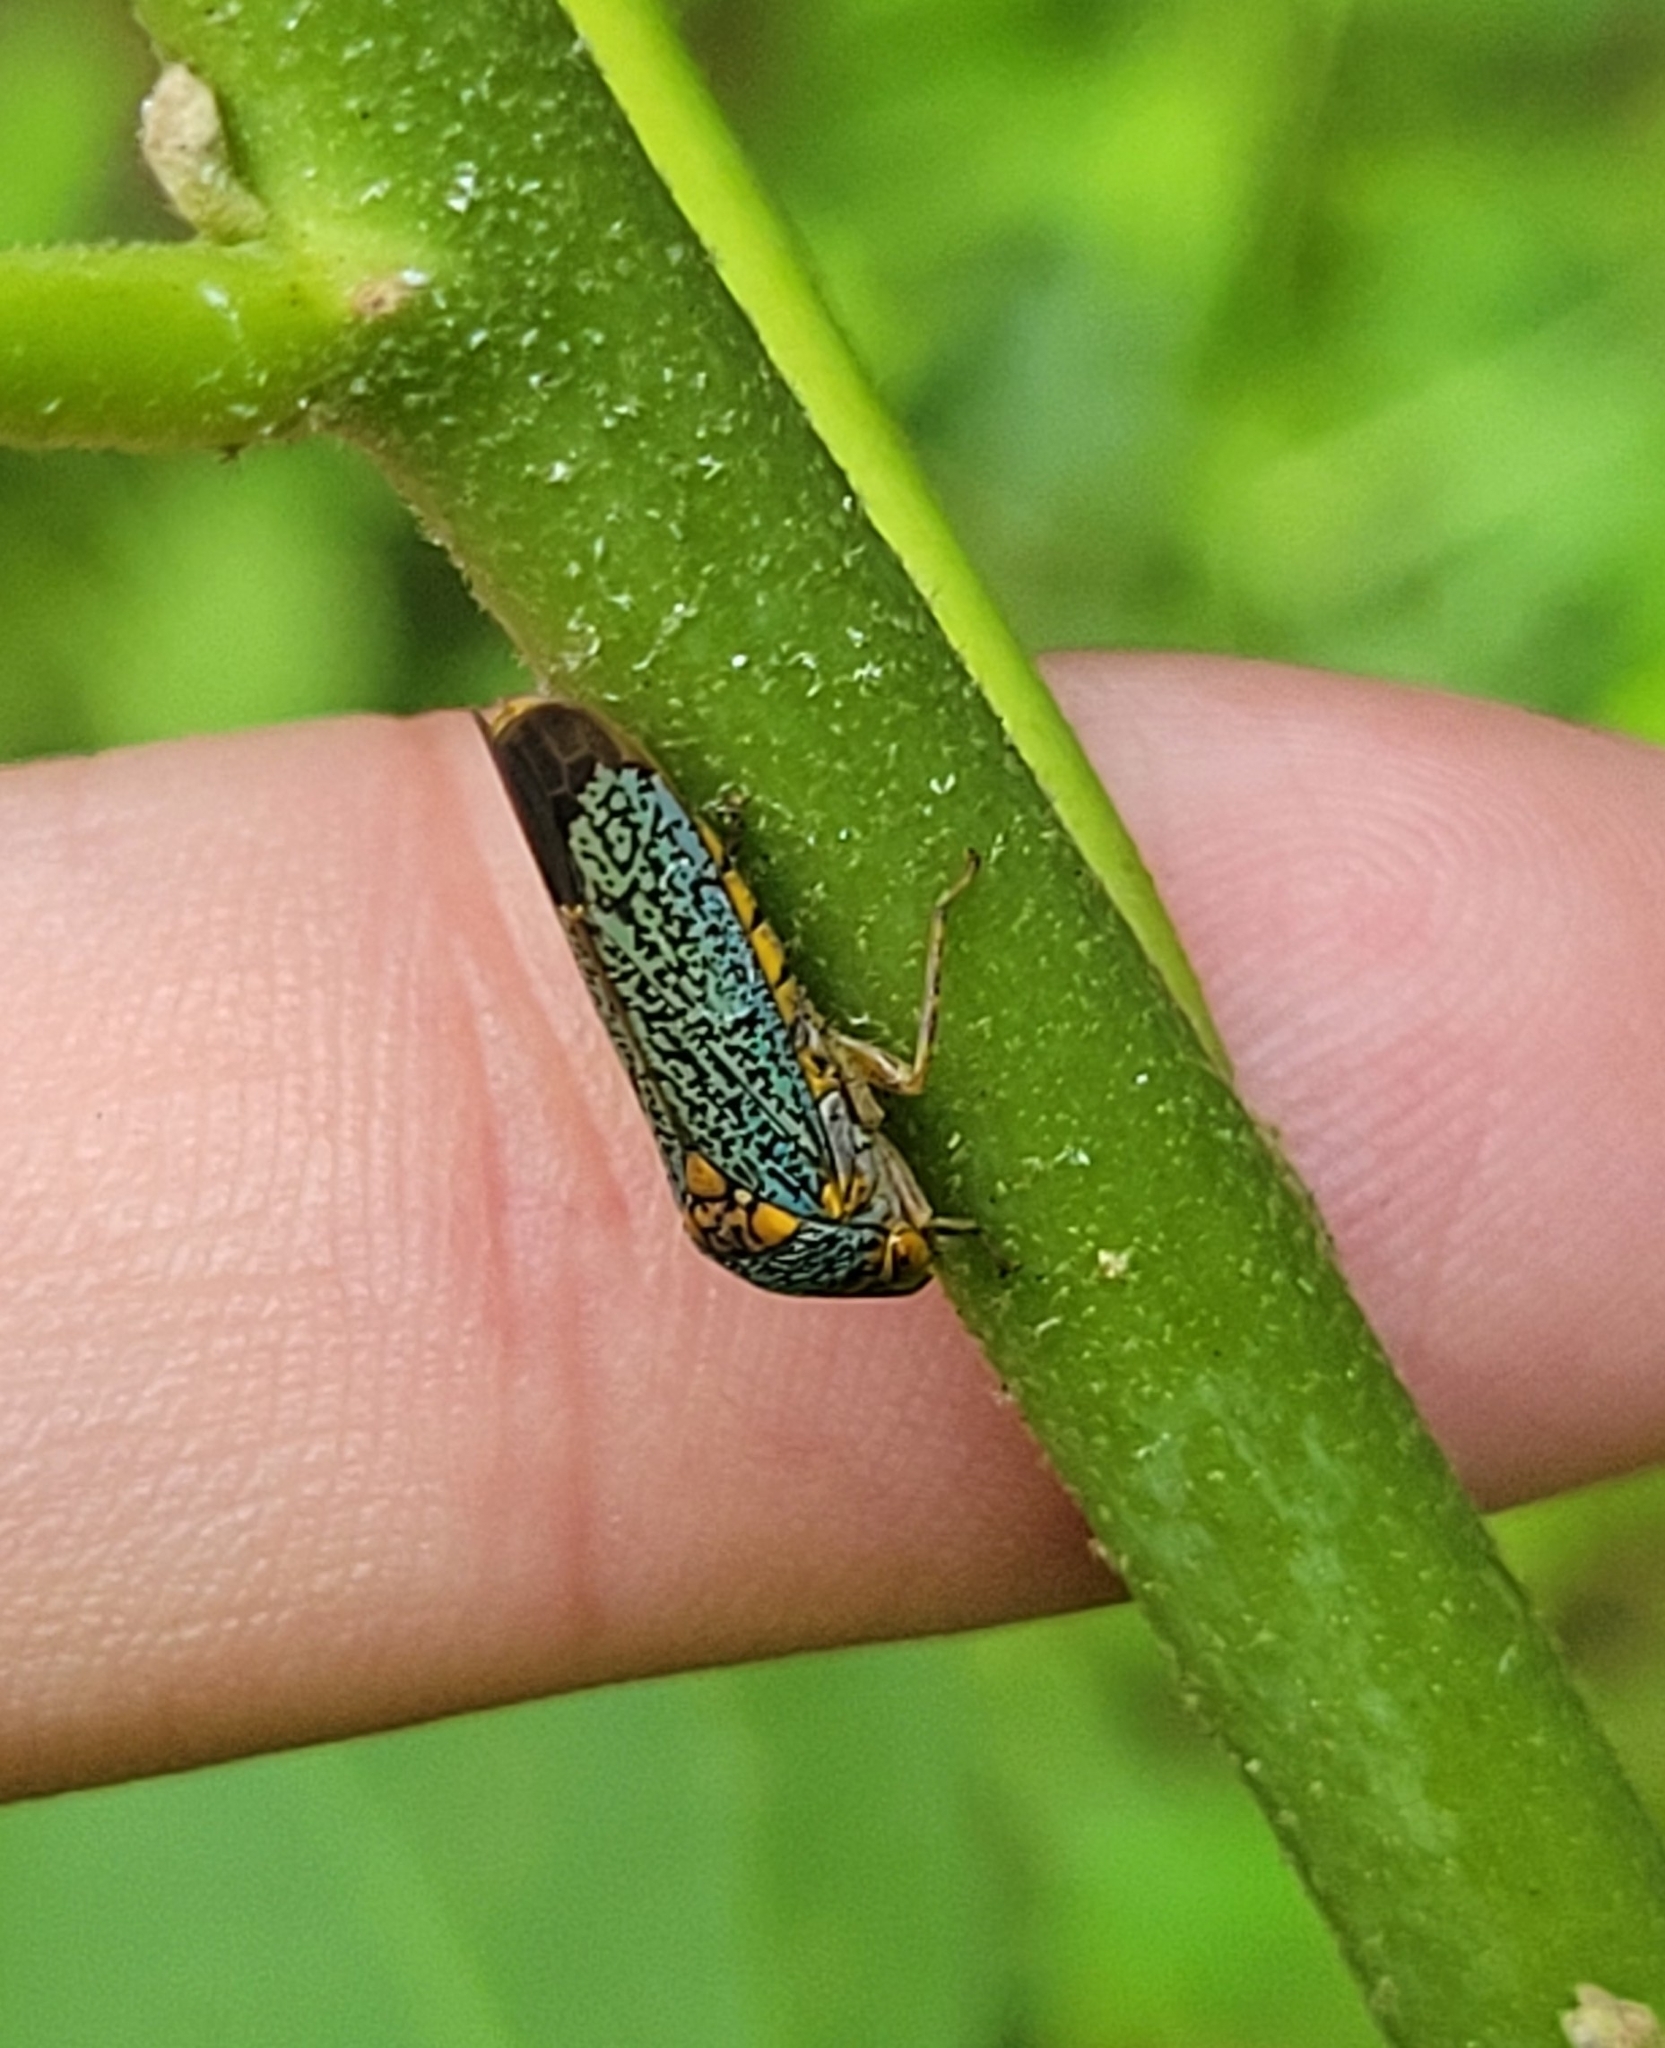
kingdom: Animalia
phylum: Arthropoda
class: Insecta
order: Hemiptera
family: Cicadellidae
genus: Oncometopia
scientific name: Oncometopia orbona
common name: Broad-headed sharpshooter
